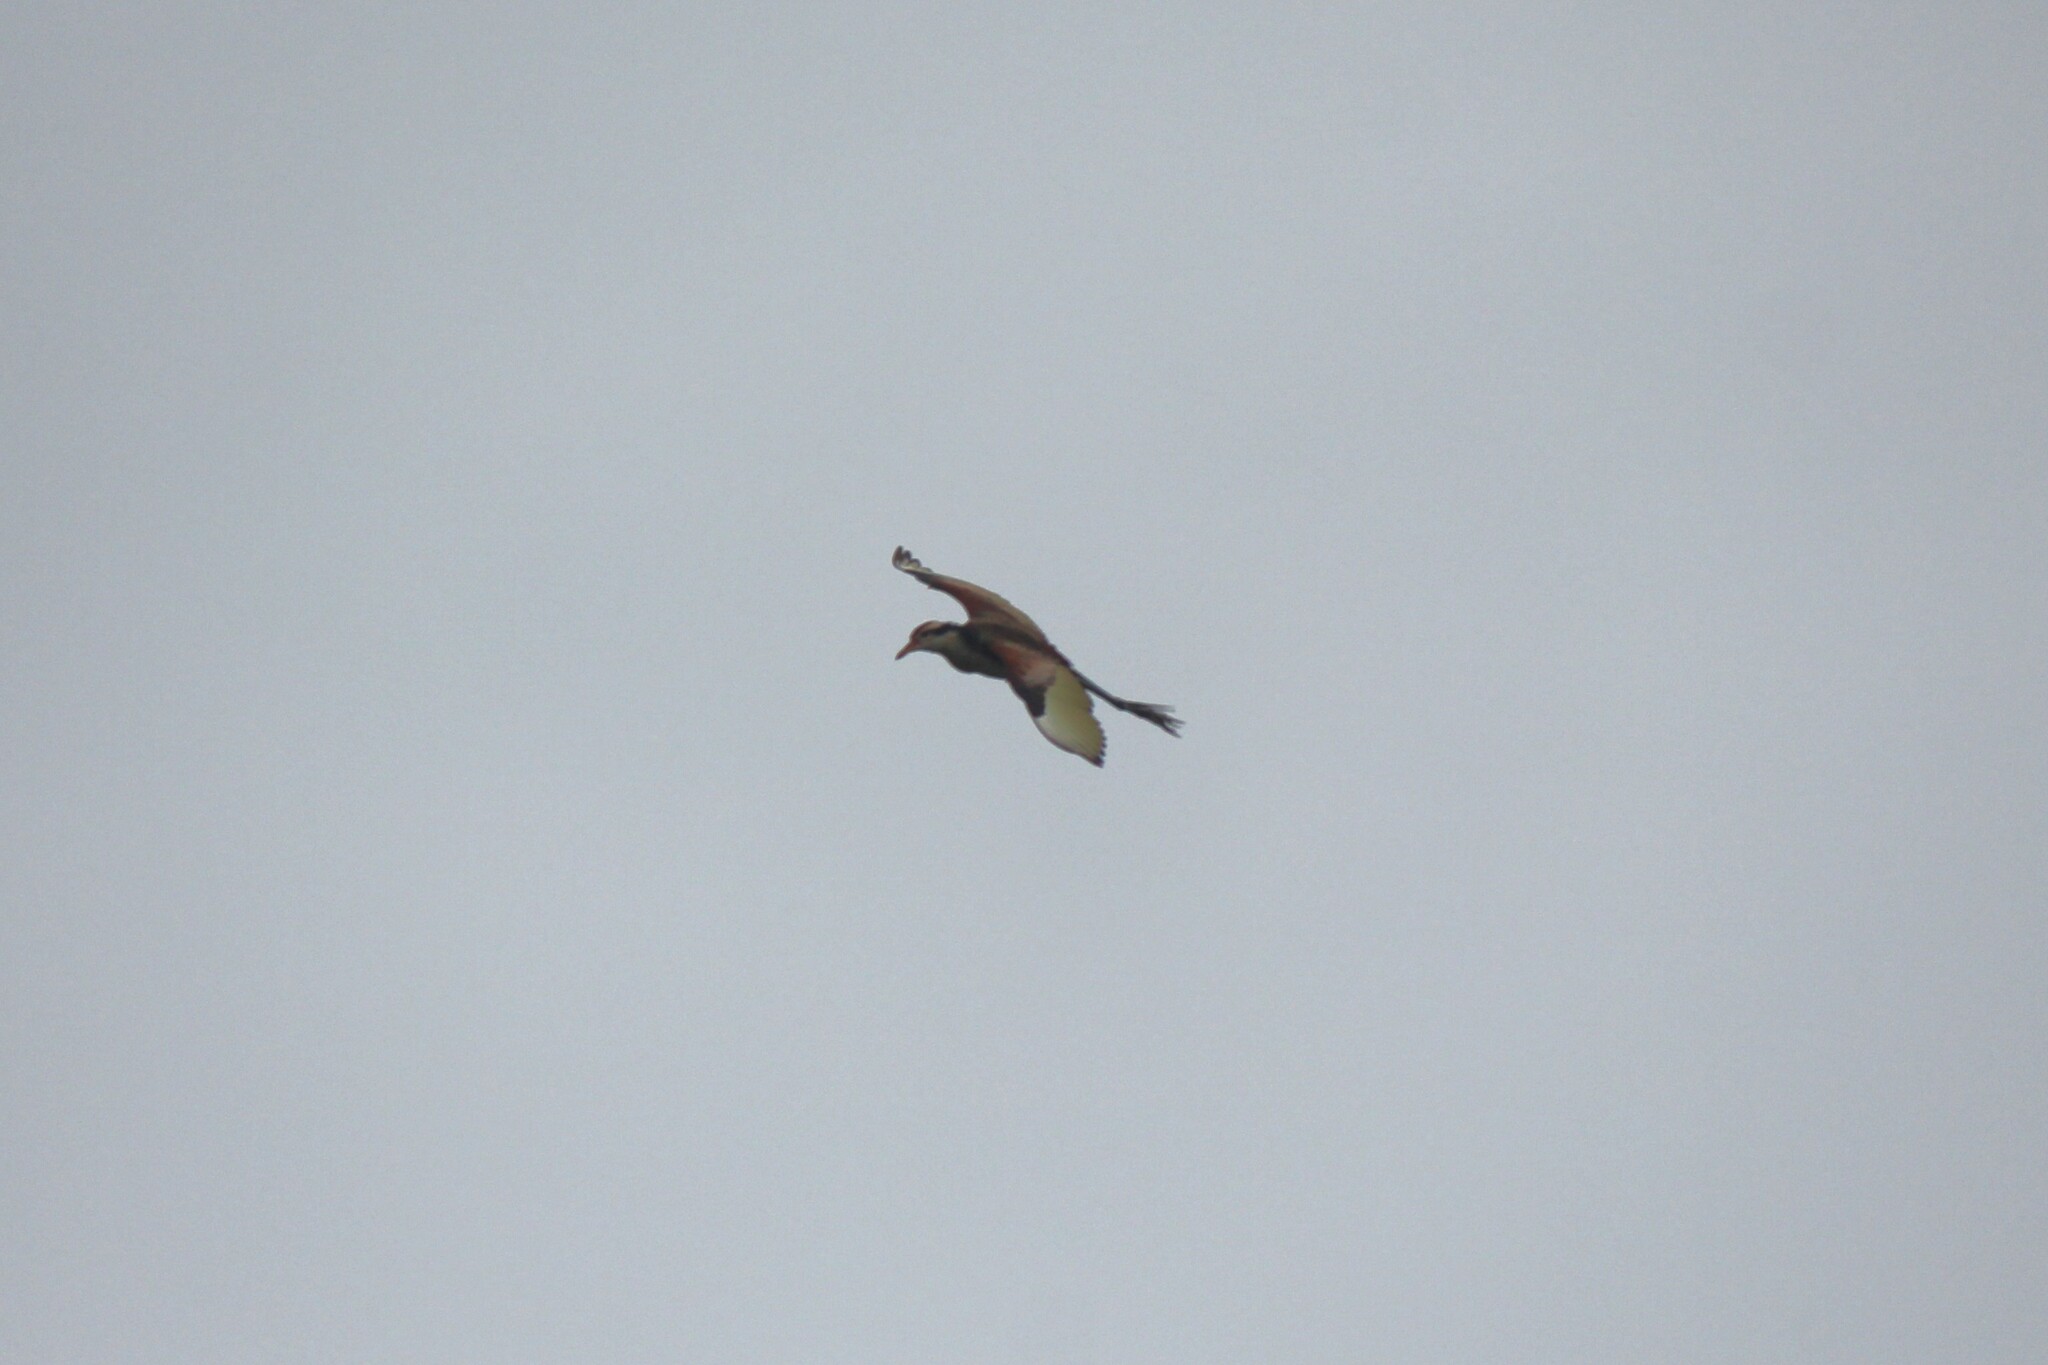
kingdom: Animalia
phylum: Chordata
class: Aves
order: Charadriiformes
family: Jacanidae
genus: Jacana
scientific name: Jacana jacana
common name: Wattled jacana
